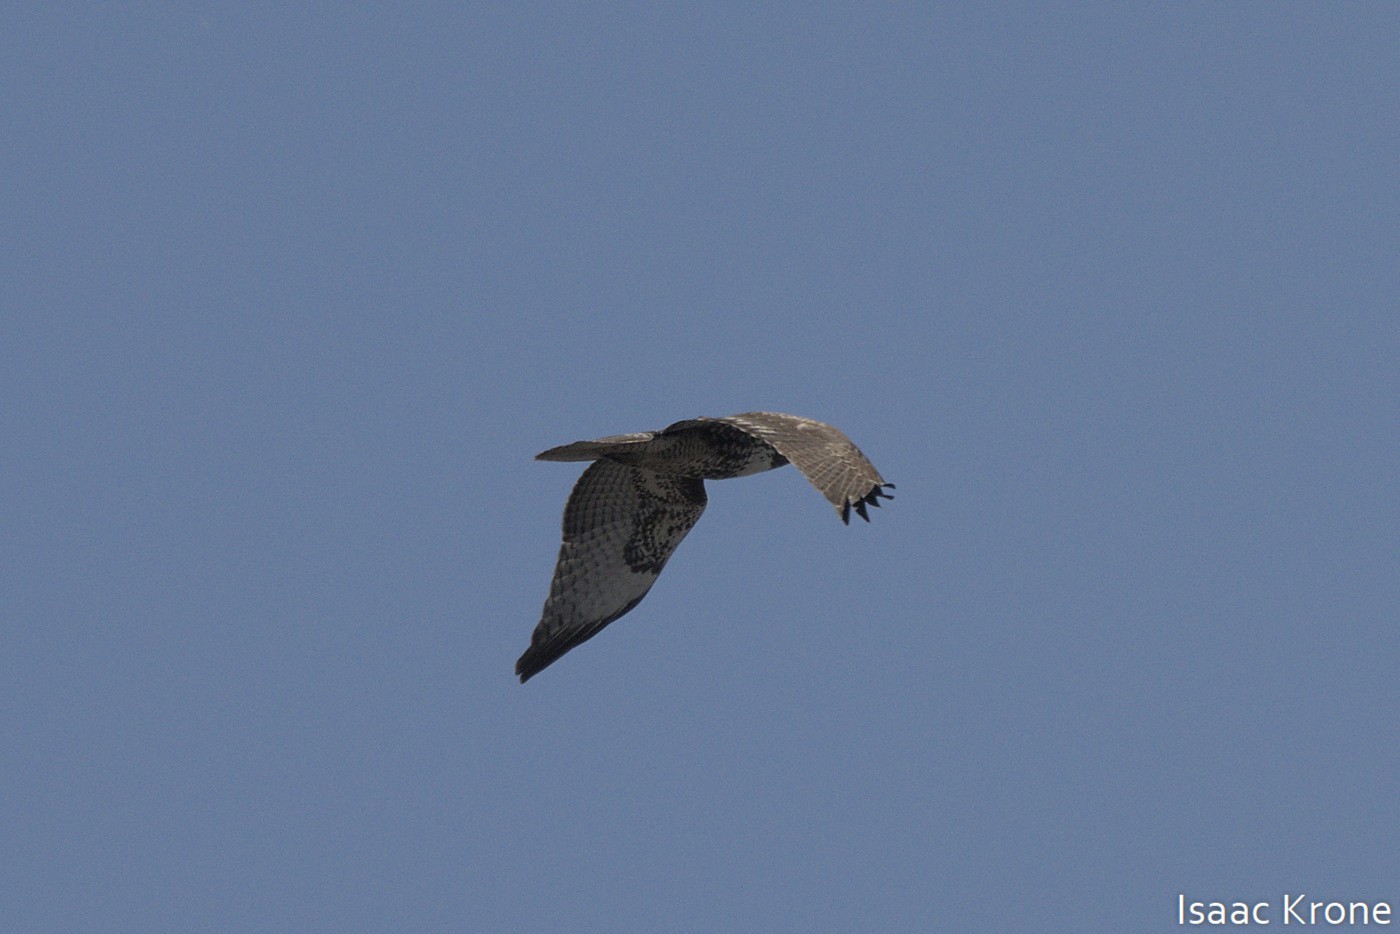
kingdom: Animalia
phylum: Chordata
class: Aves
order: Accipitriformes
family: Accipitridae
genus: Buteo
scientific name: Buteo jamaicensis
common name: Red-tailed hawk
